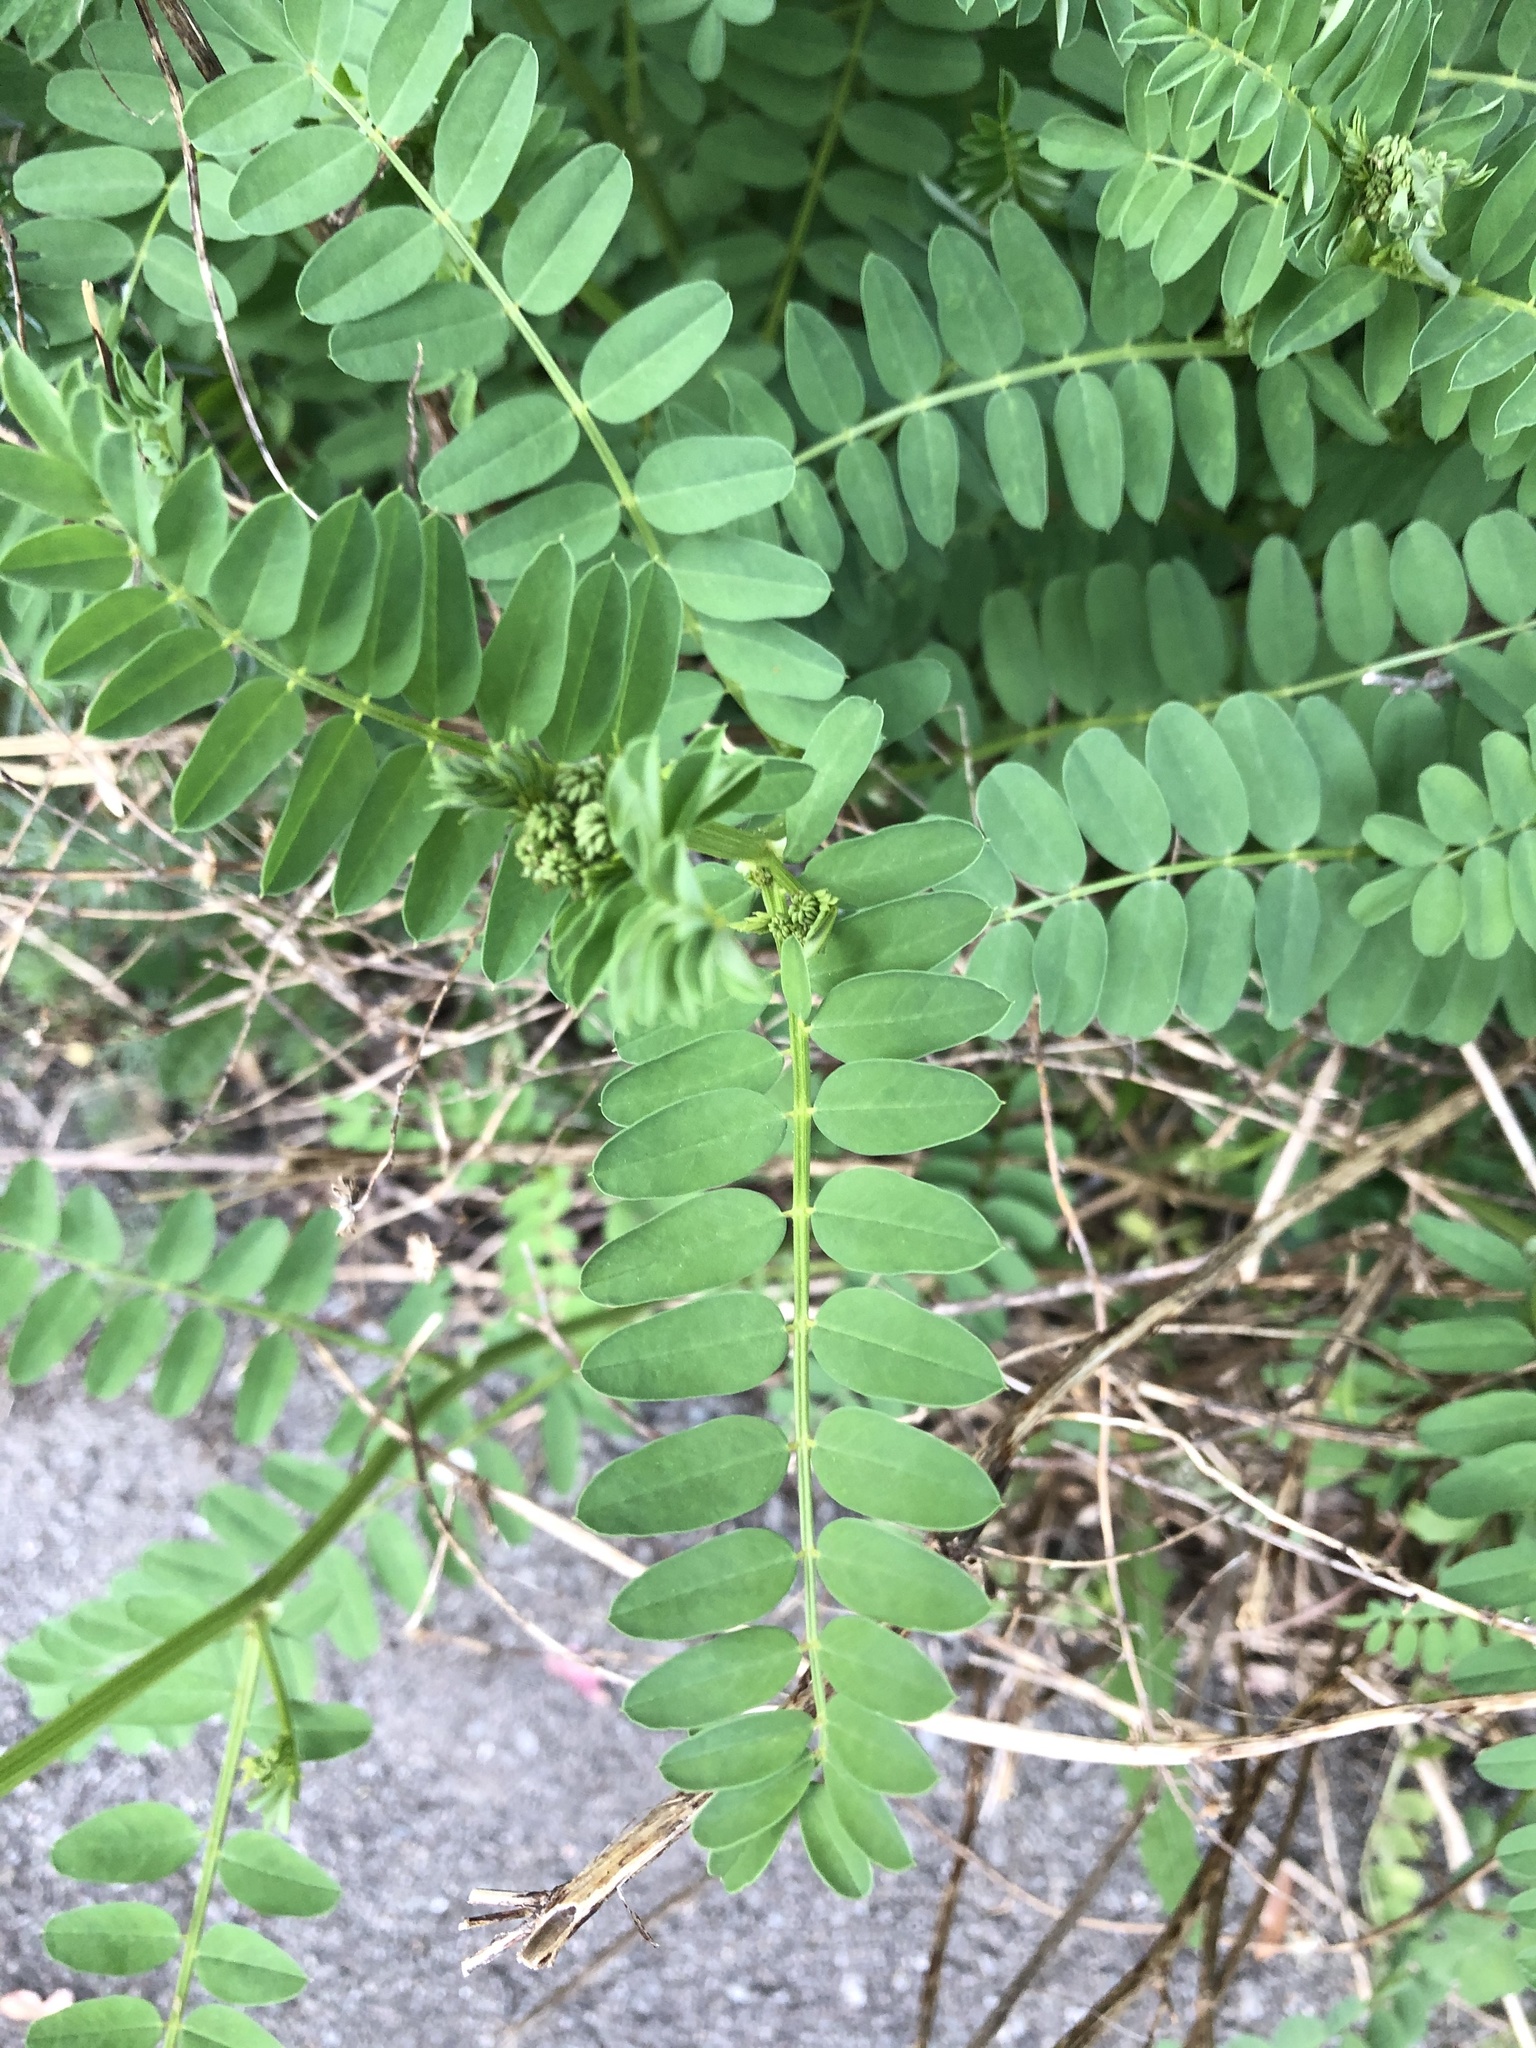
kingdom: Plantae
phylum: Tracheophyta
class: Magnoliopsida
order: Fabales
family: Fabaceae
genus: Coronilla
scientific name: Coronilla varia
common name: Crownvetch
